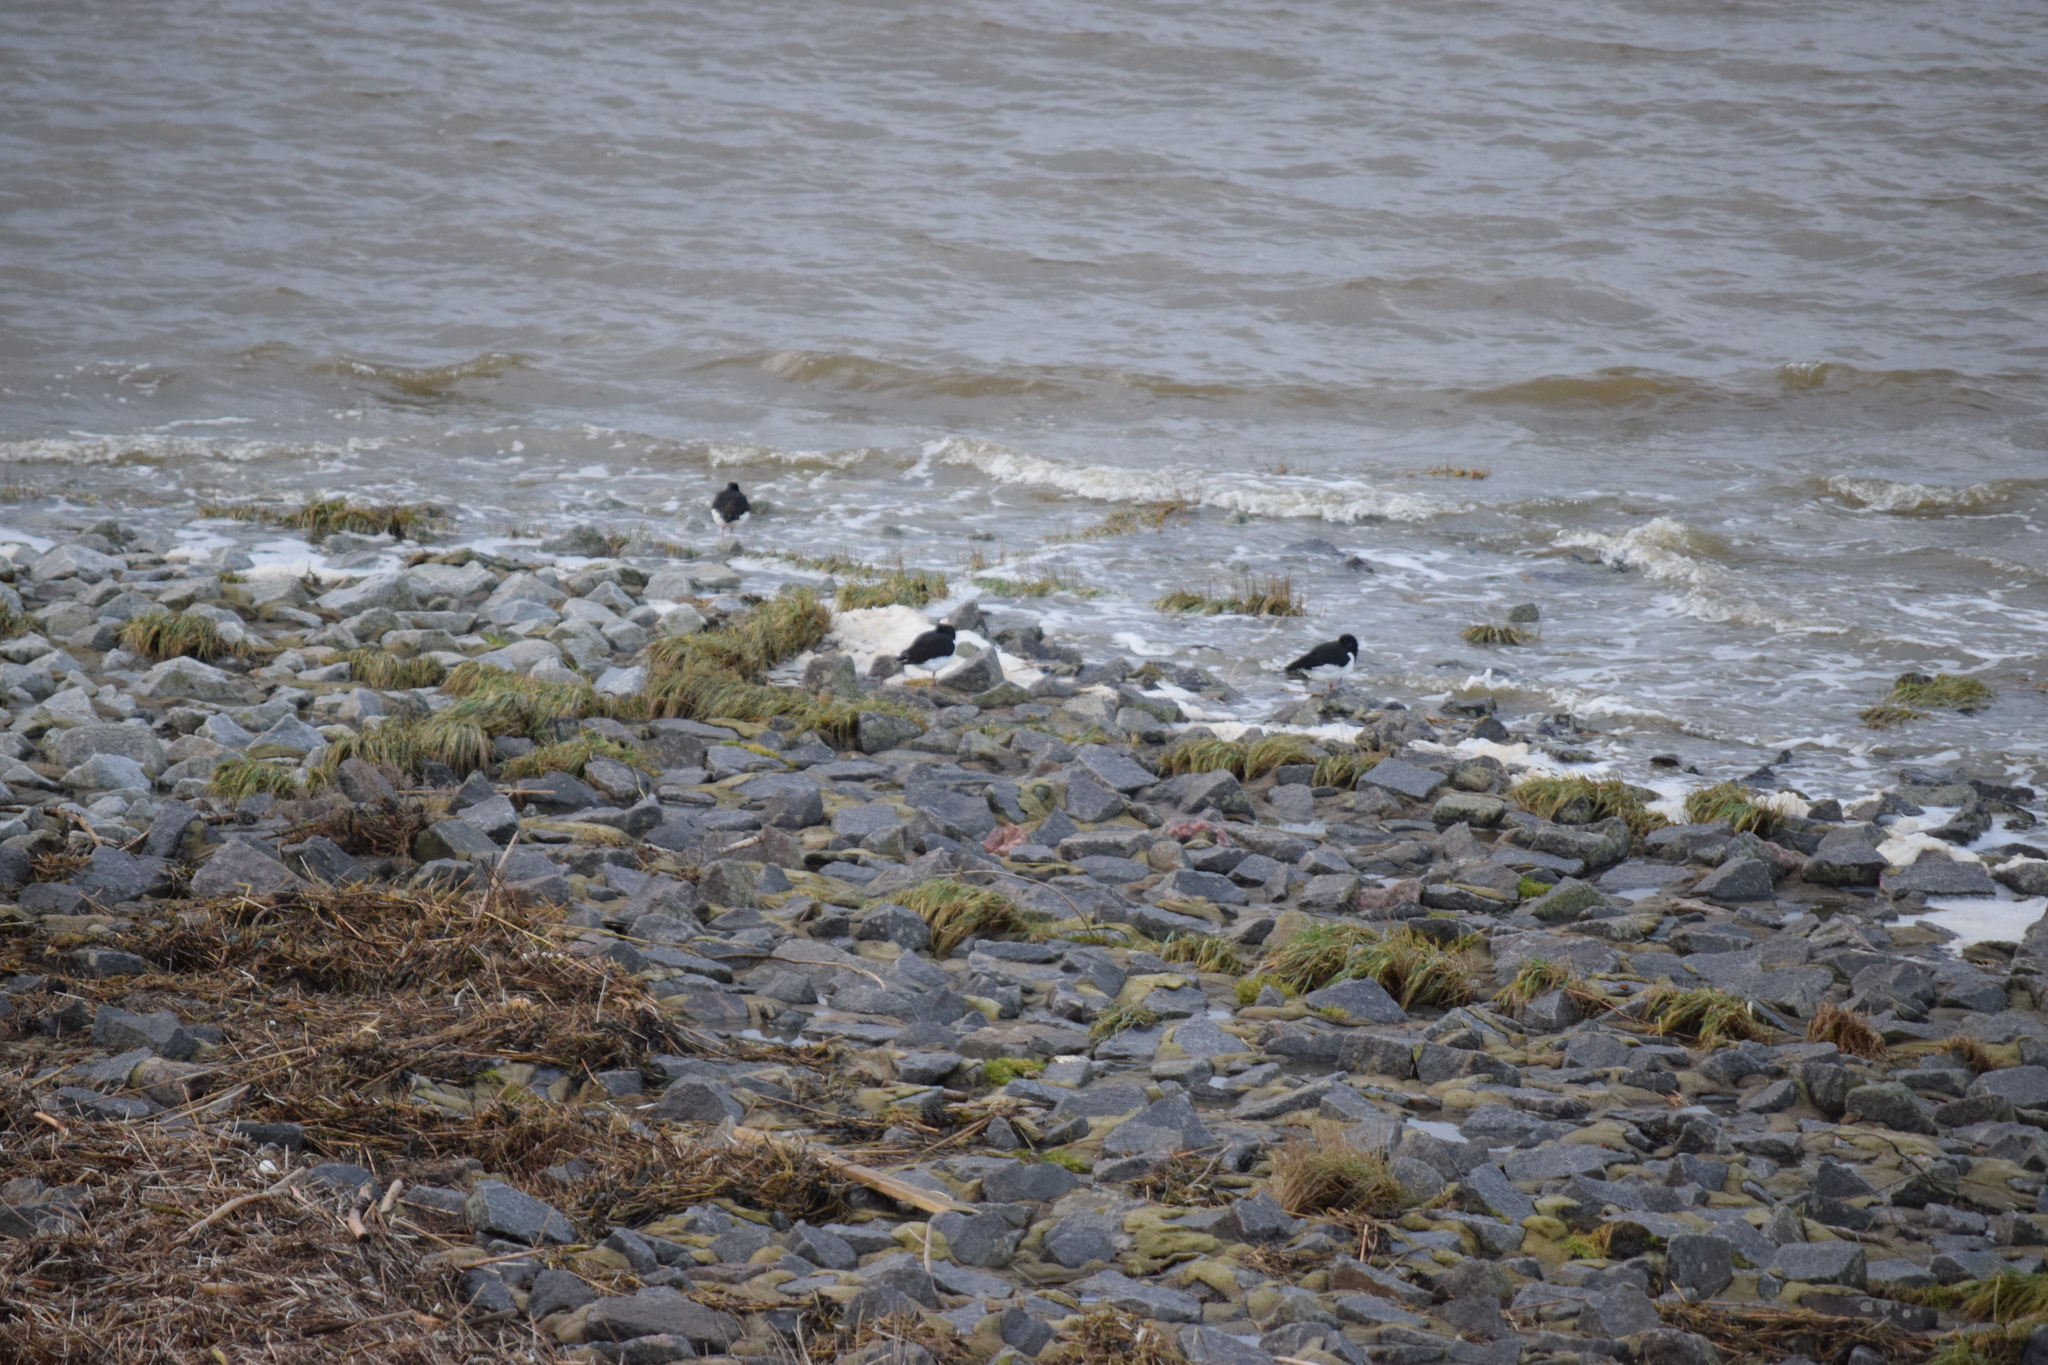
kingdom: Animalia
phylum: Chordata
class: Aves
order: Charadriiformes
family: Haematopodidae
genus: Haematopus
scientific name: Haematopus ostralegus
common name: Eurasian oystercatcher
